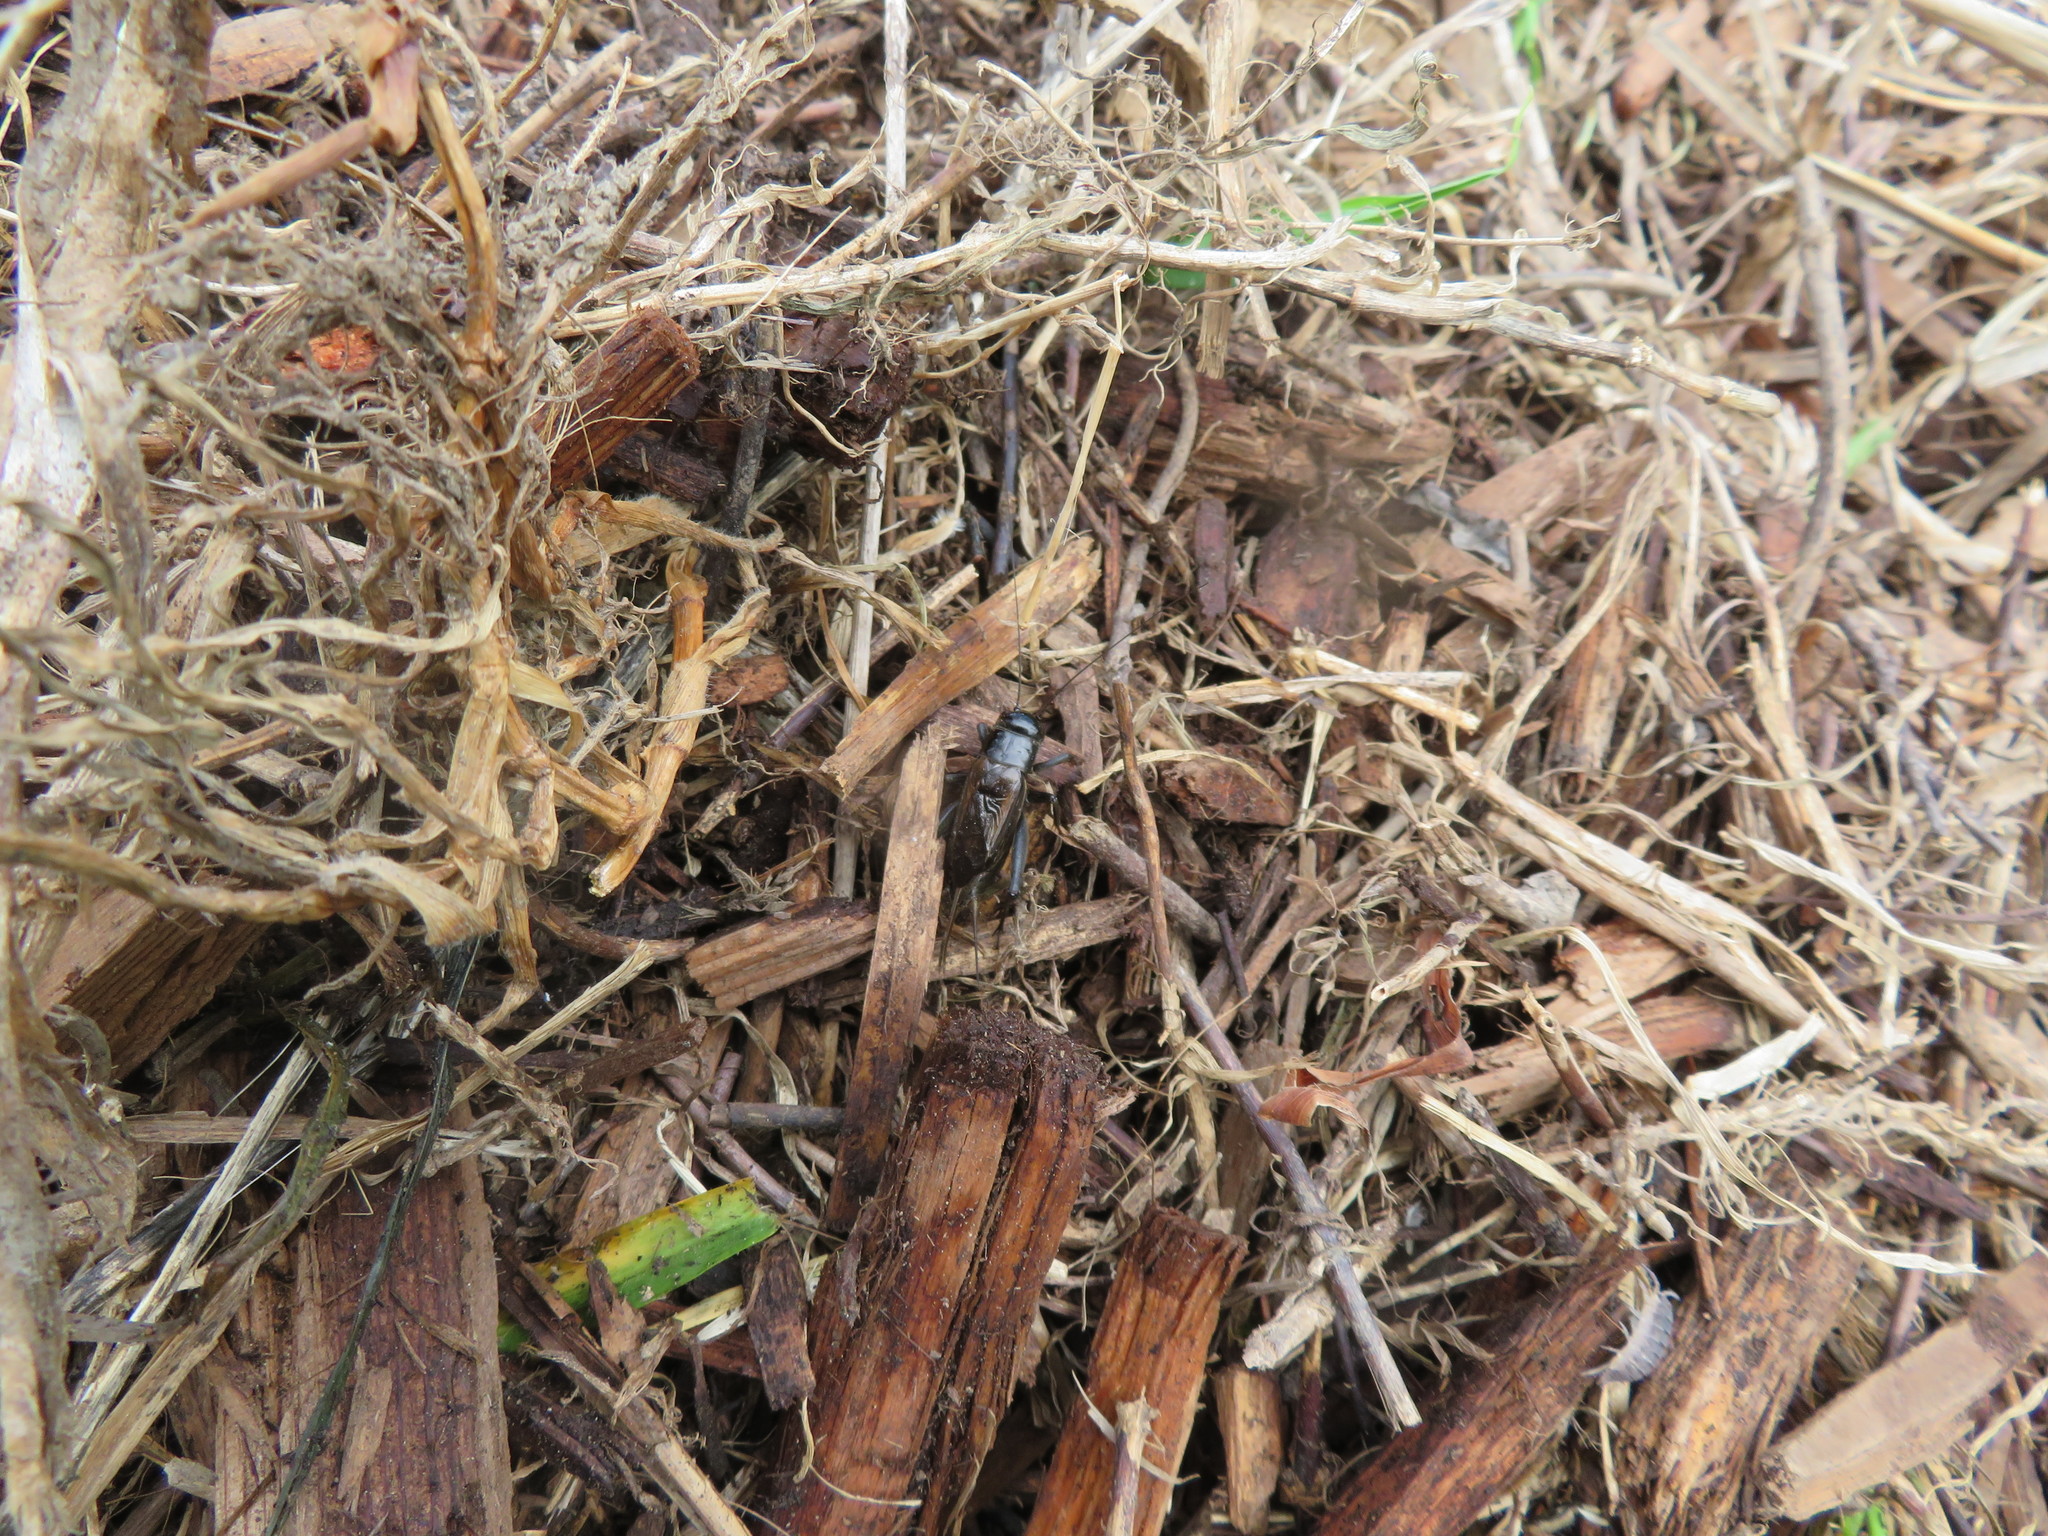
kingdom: Animalia
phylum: Arthropoda
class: Insecta
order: Orthoptera
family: Gryllidae
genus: Teleogryllus
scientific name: Teleogryllus commodus
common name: Black field cricket
